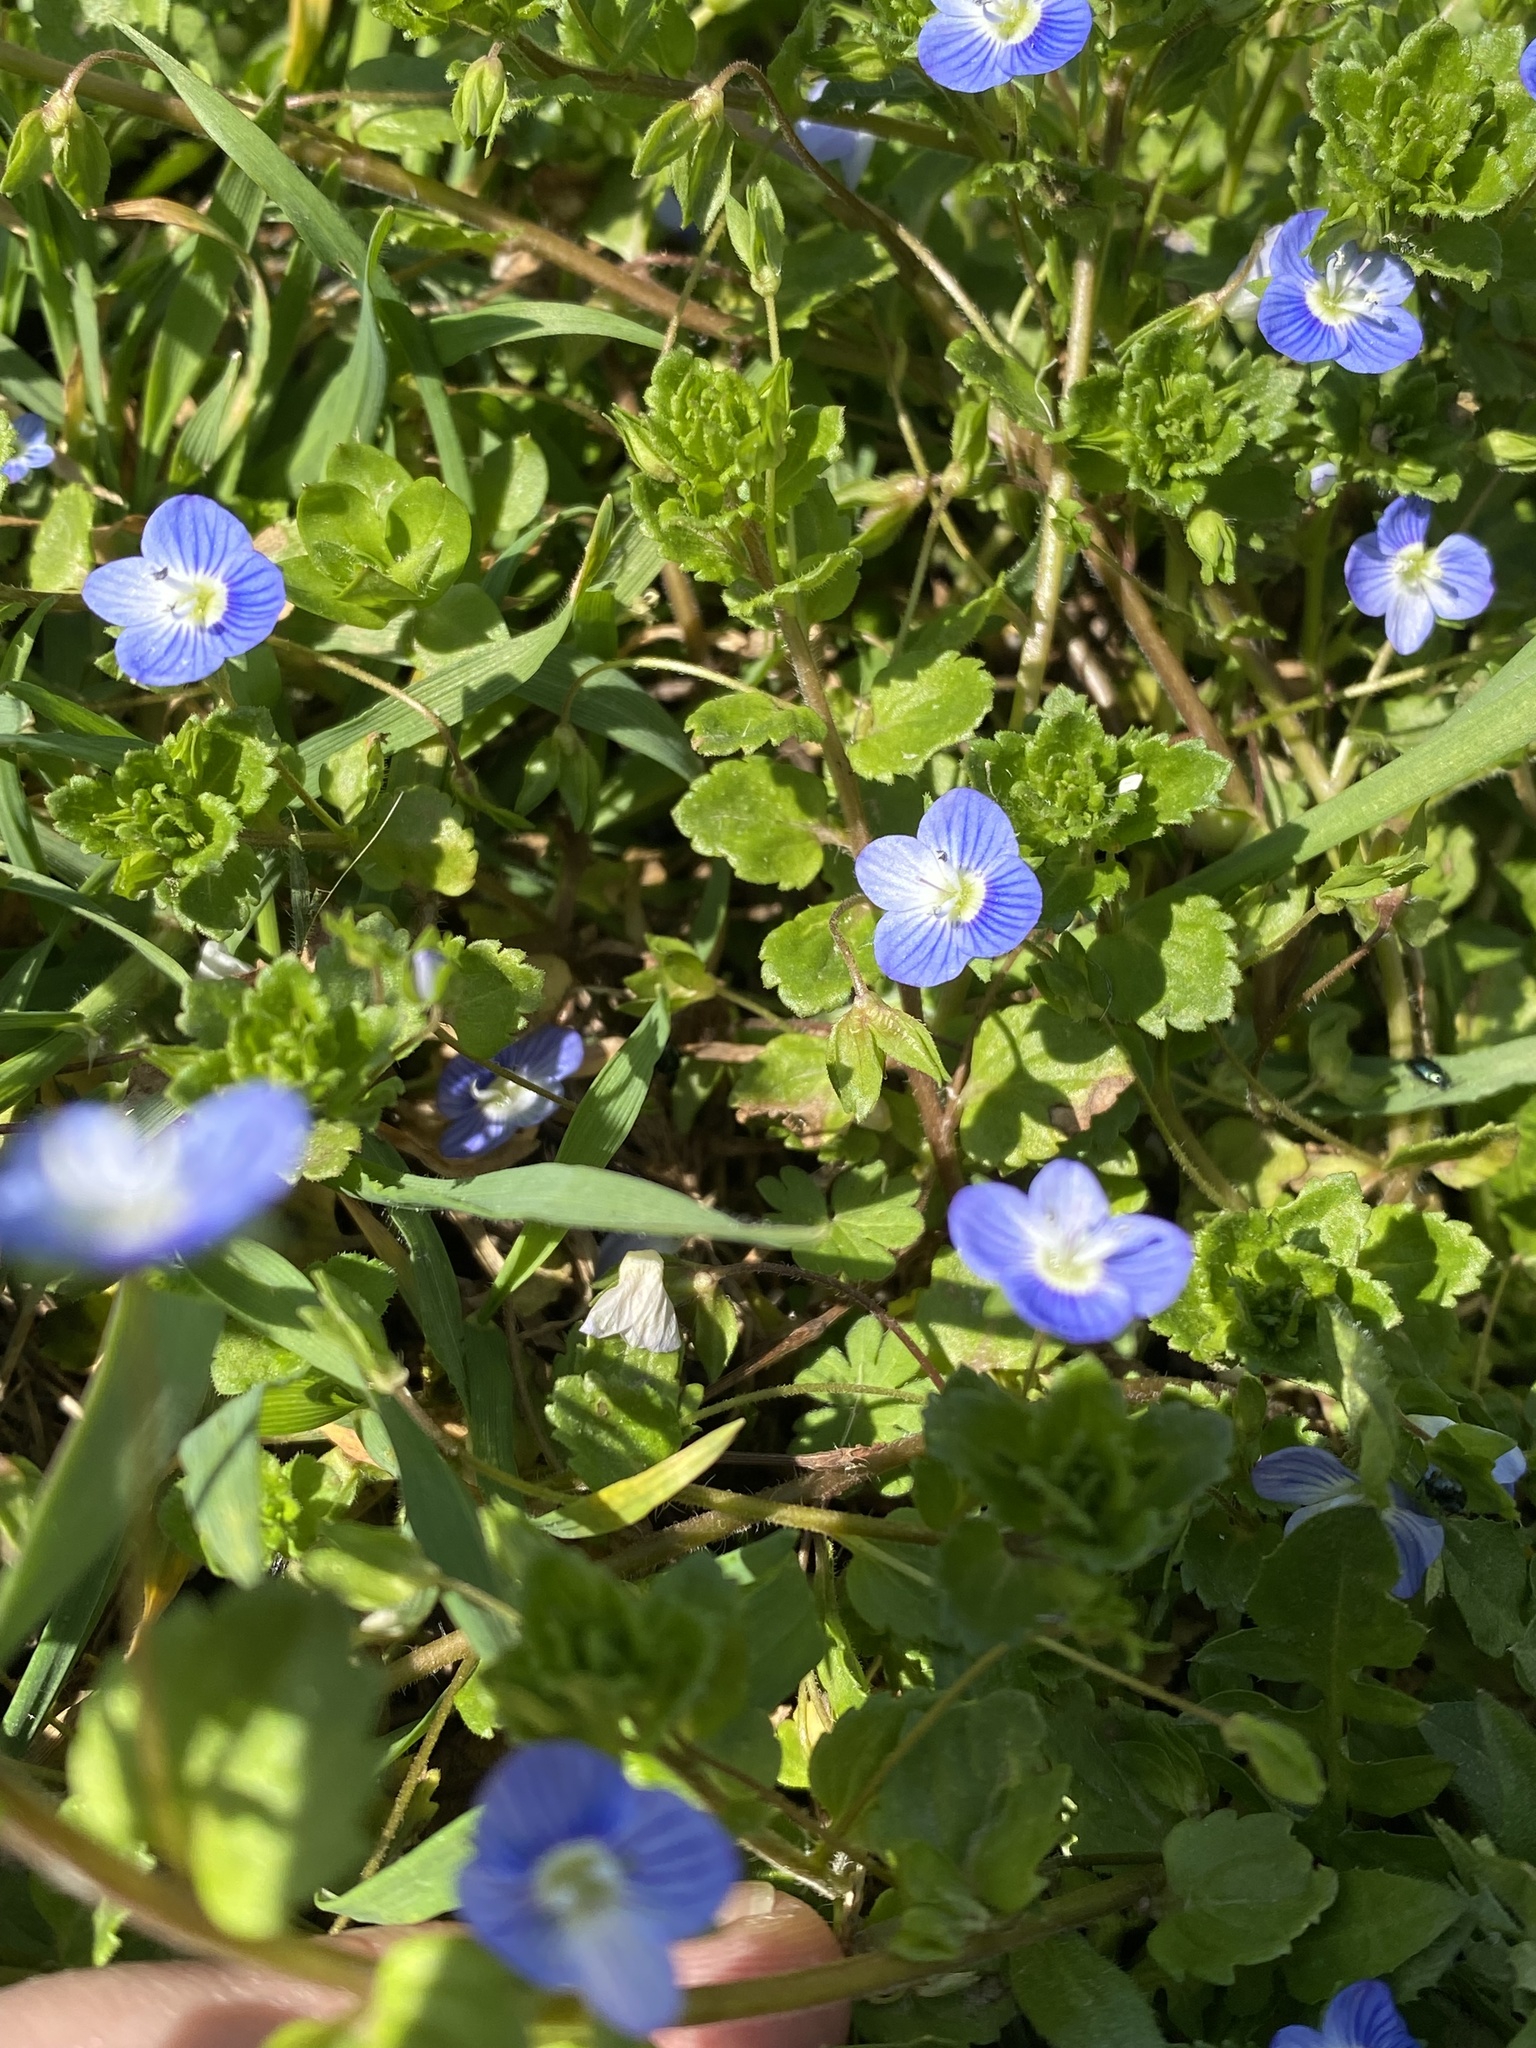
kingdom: Plantae
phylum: Tracheophyta
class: Magnoliopsida
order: Lamiales
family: Plantaginaceae
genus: Veronica
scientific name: Veronica persica
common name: Common field-speedwell
